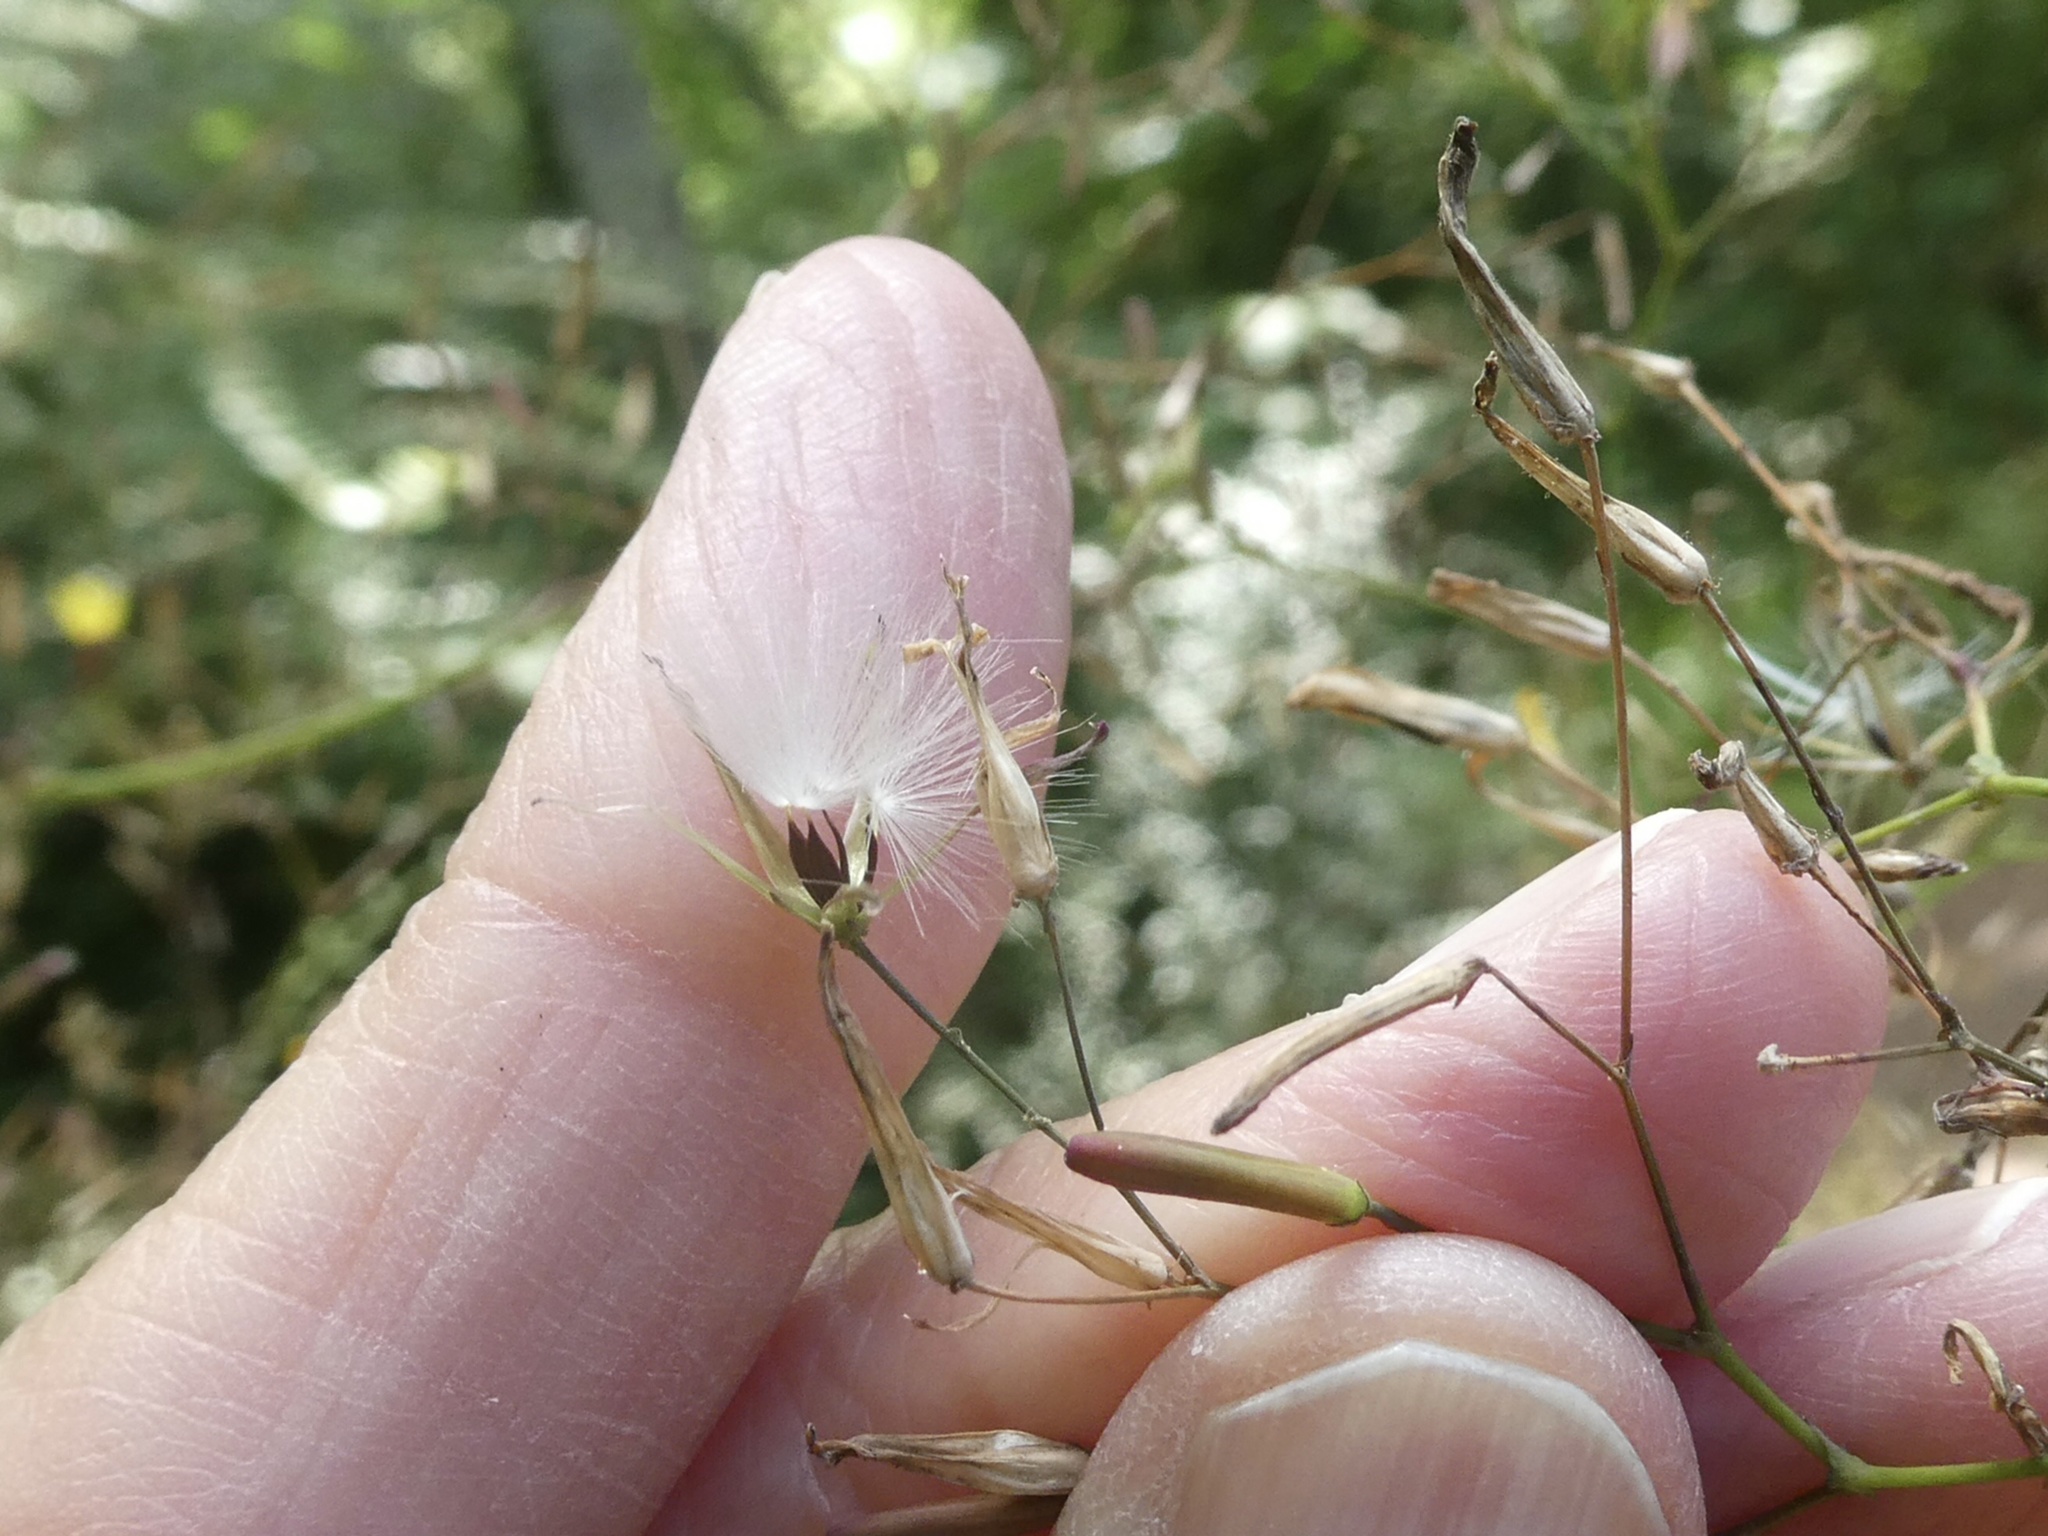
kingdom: Plantae
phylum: Tracheophyta
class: Magnoliopsida
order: Asterales
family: Asteraceae
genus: Mycelis
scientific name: Mycelis muralis
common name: Wall lettuce
